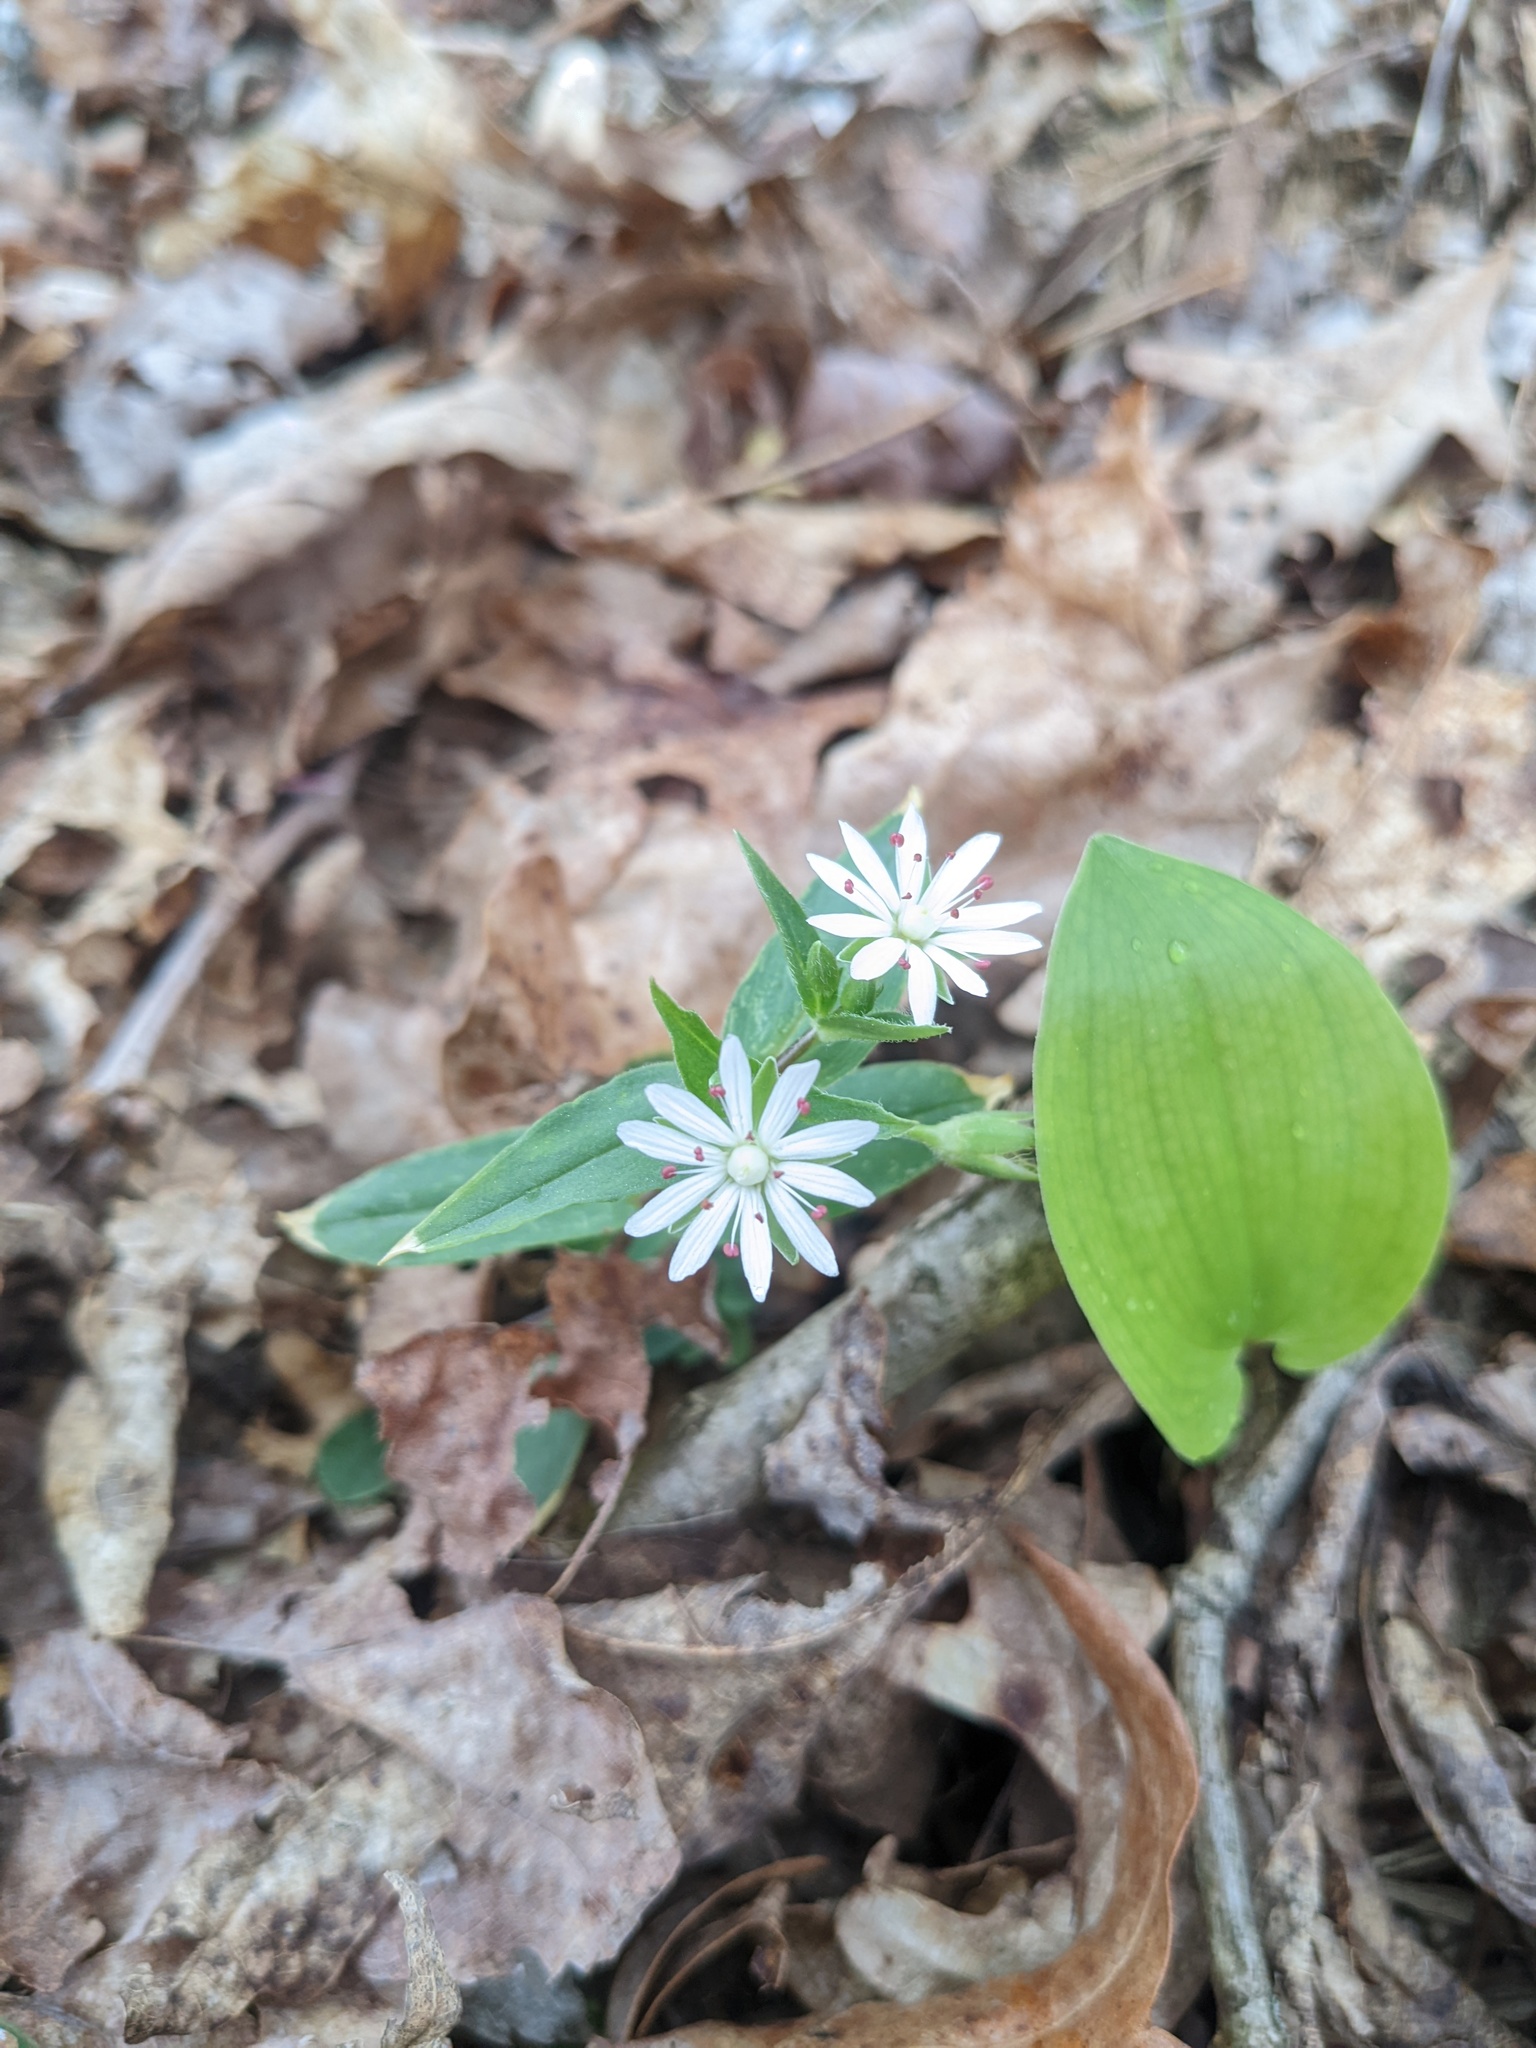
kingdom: Plantae
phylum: Tracheophyta
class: Magnoliopsida
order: Caryophyllales
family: Caryophyllaceae
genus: Stellaria
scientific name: Stellaria pubera
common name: Star chickweed
